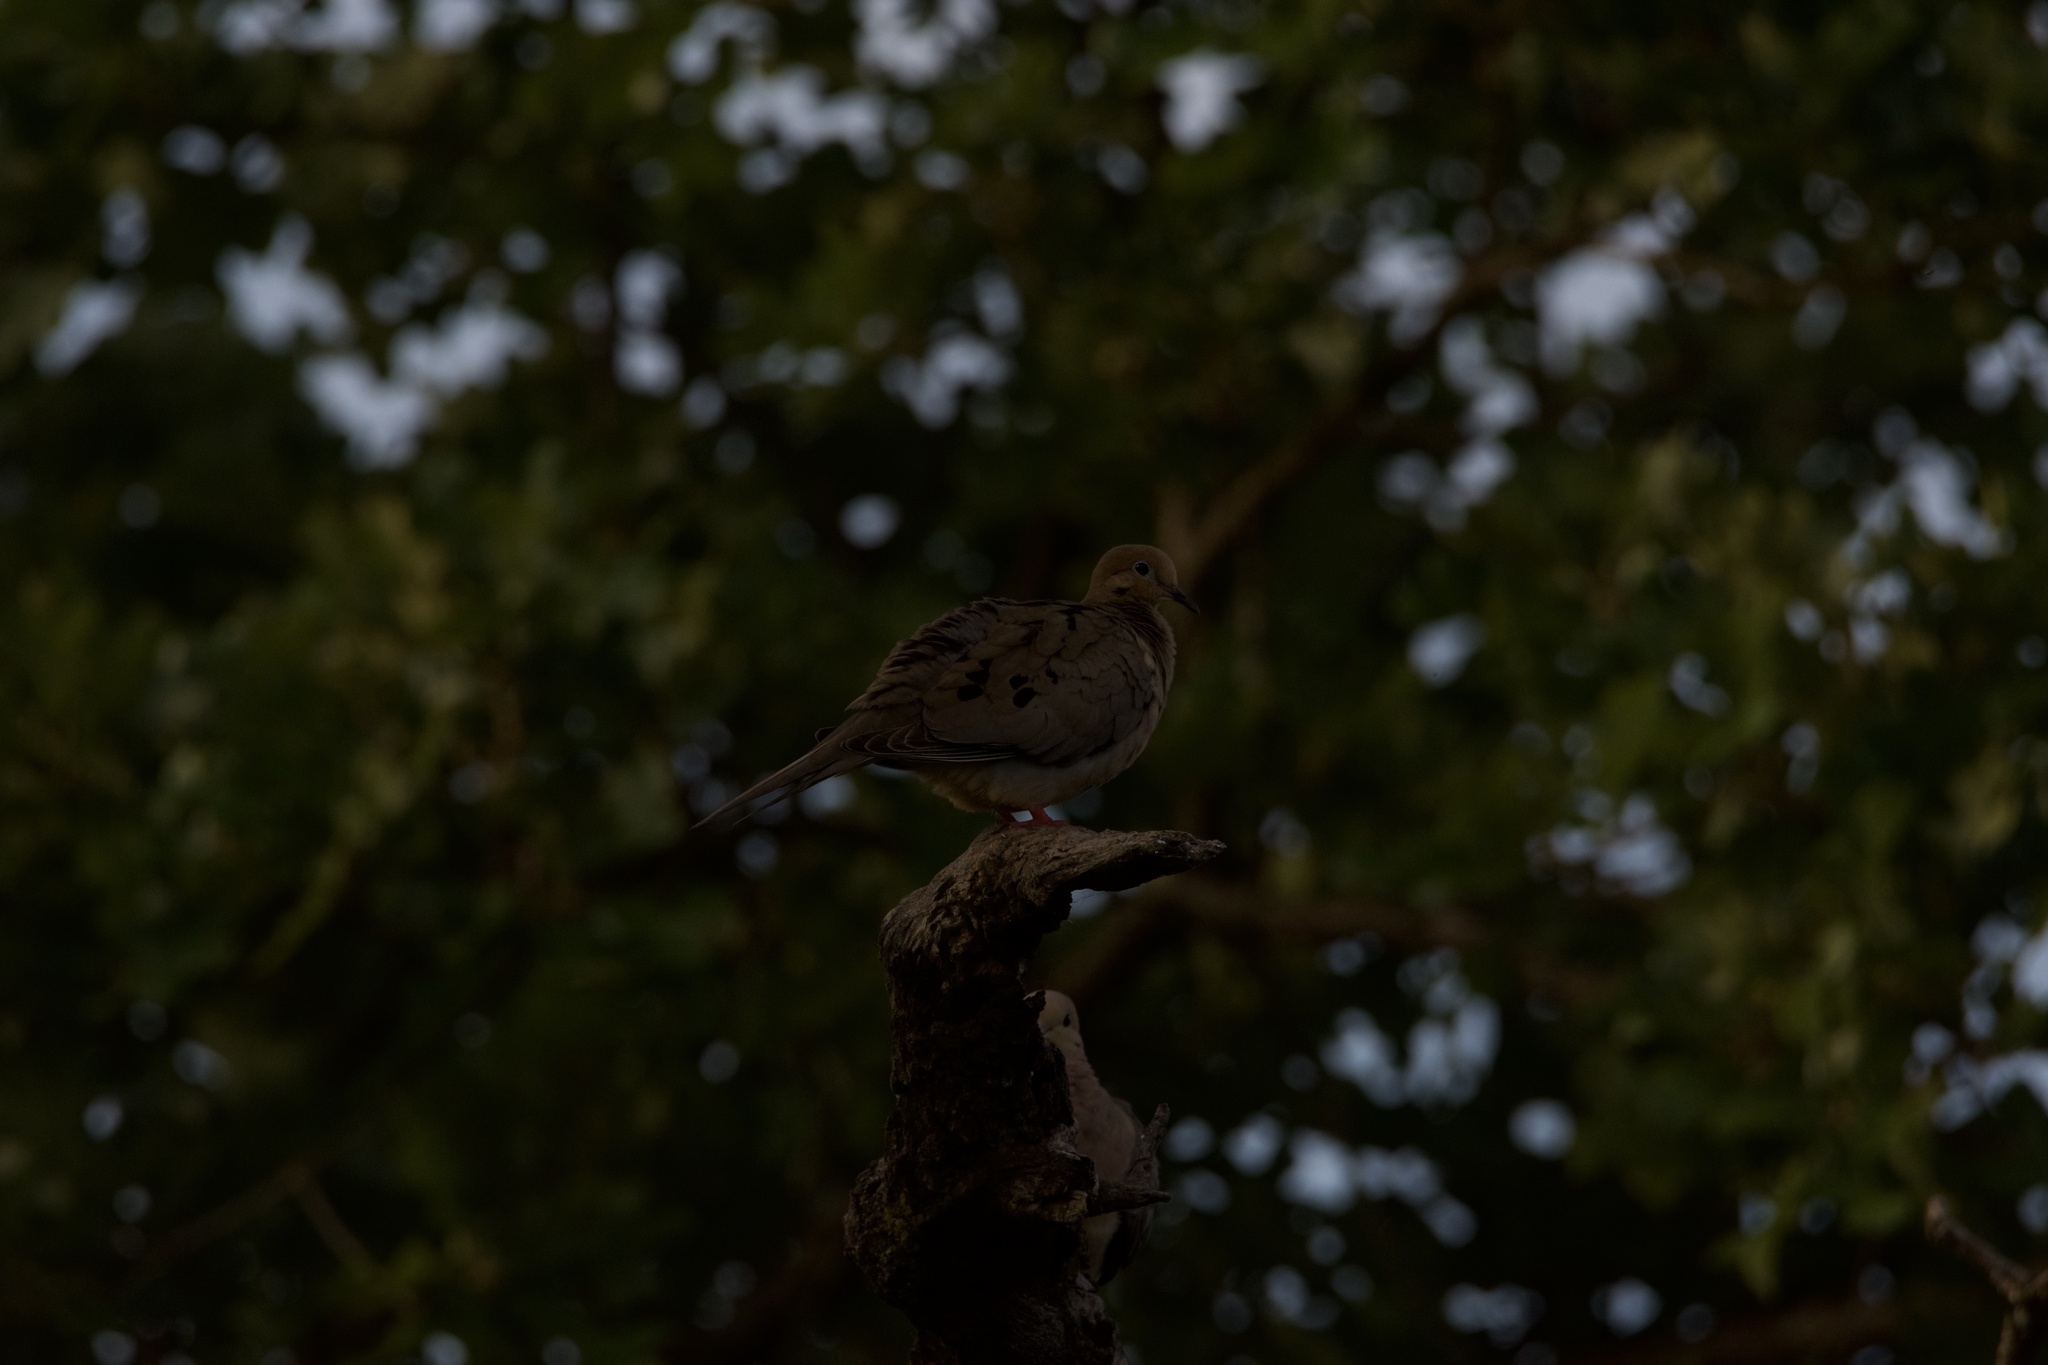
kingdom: Animalia
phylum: Chordata
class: Aves
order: Columbiformes
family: Columbidae
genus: Zenaida
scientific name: Zenaida macroura
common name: Mourning dove
